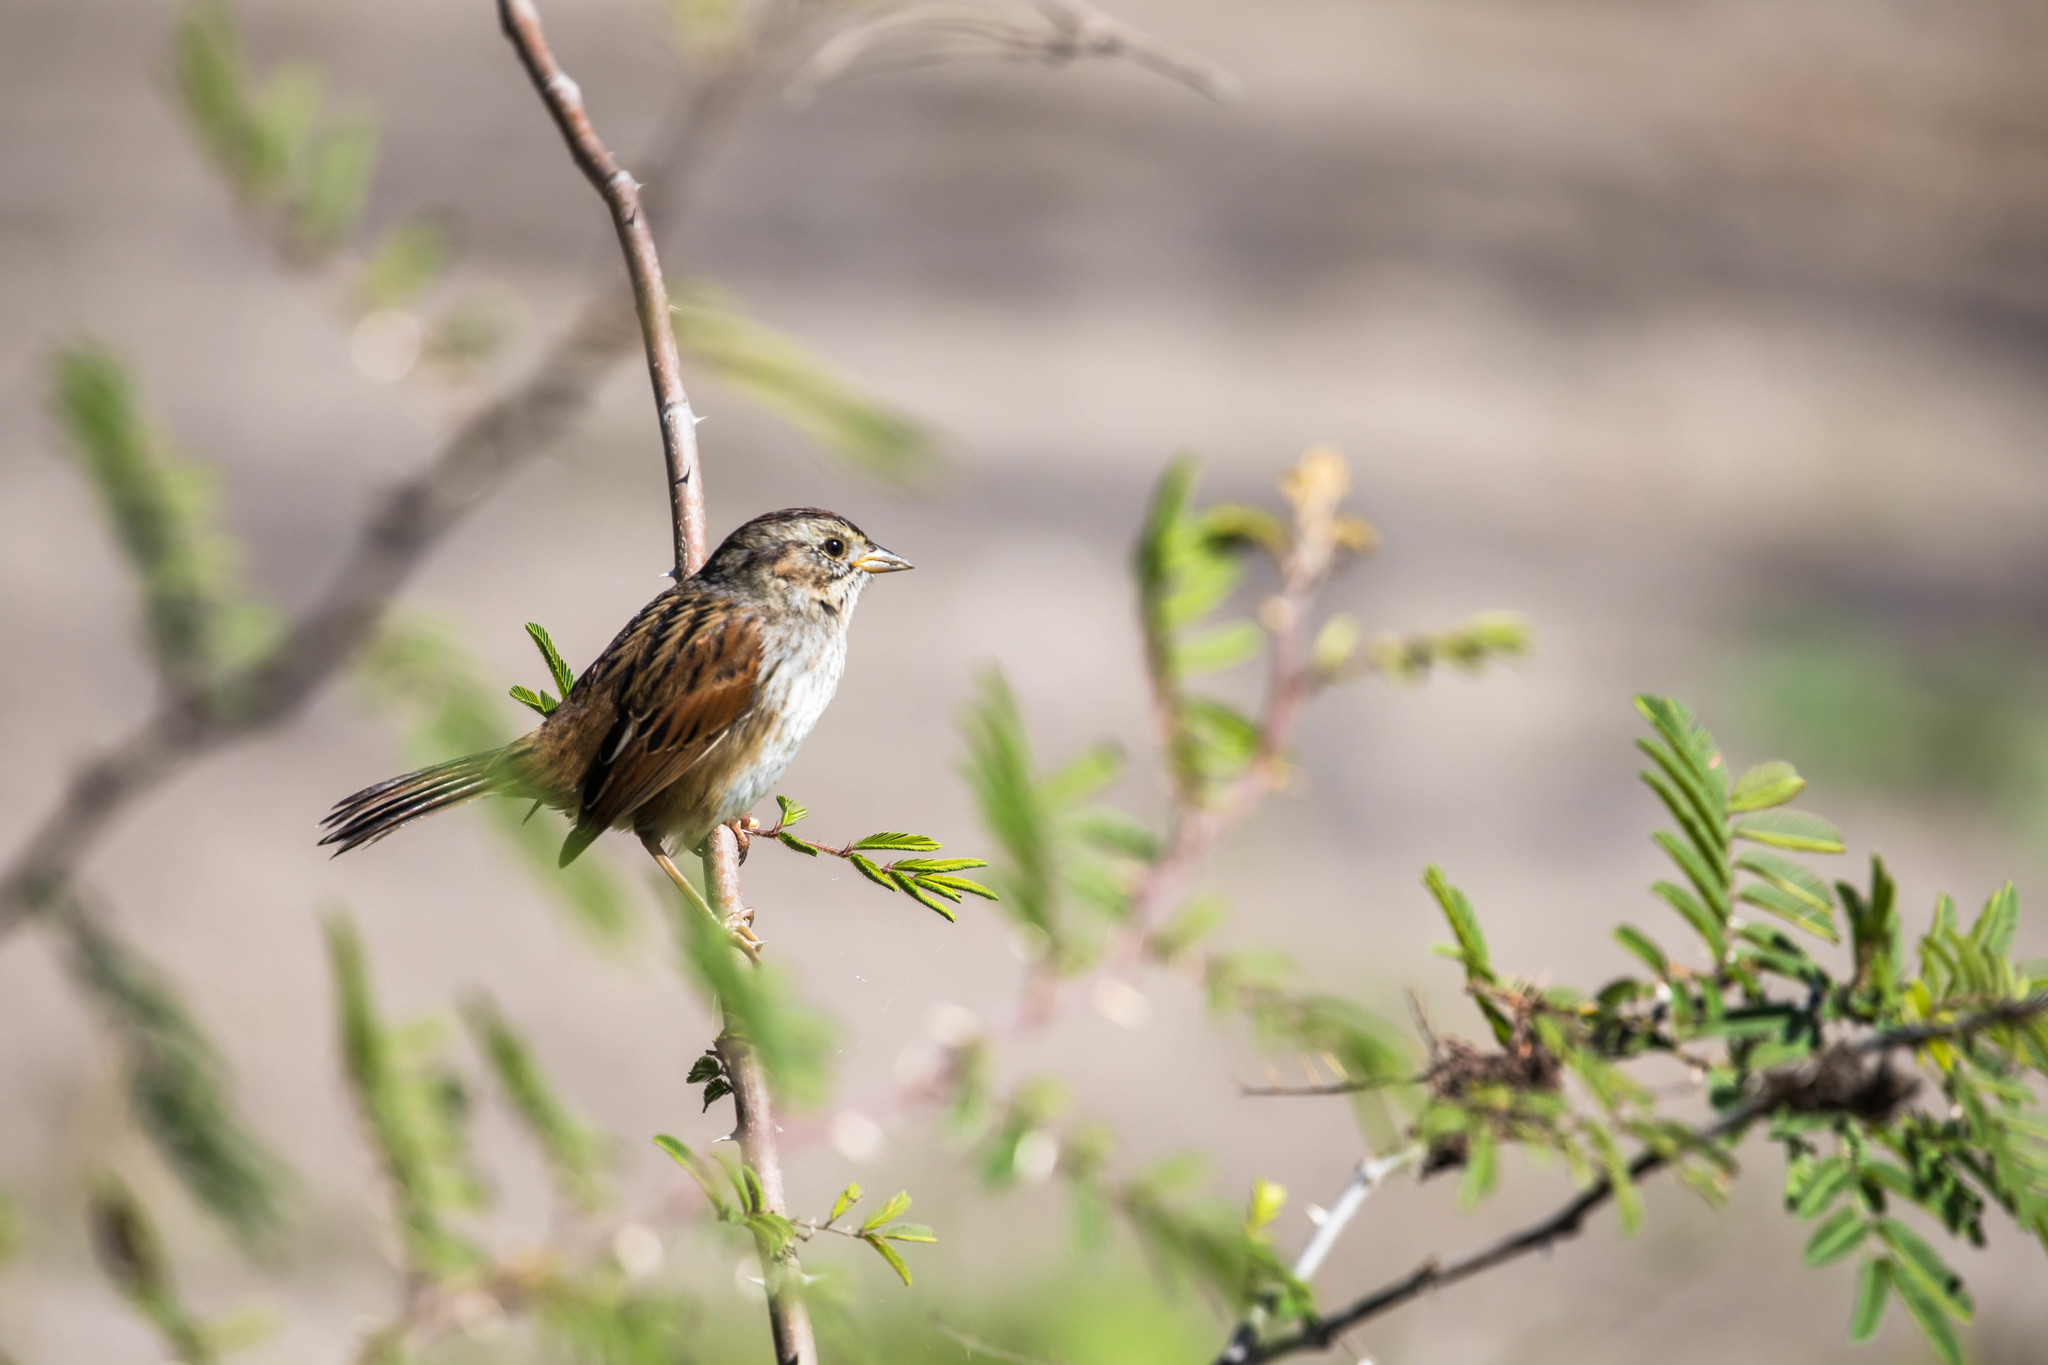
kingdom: Animalia
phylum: Chordata
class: Aves
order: Passeriformes
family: Passerellidae
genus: Melospiza
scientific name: Melospiza georgiana
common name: Swamp sparrow
